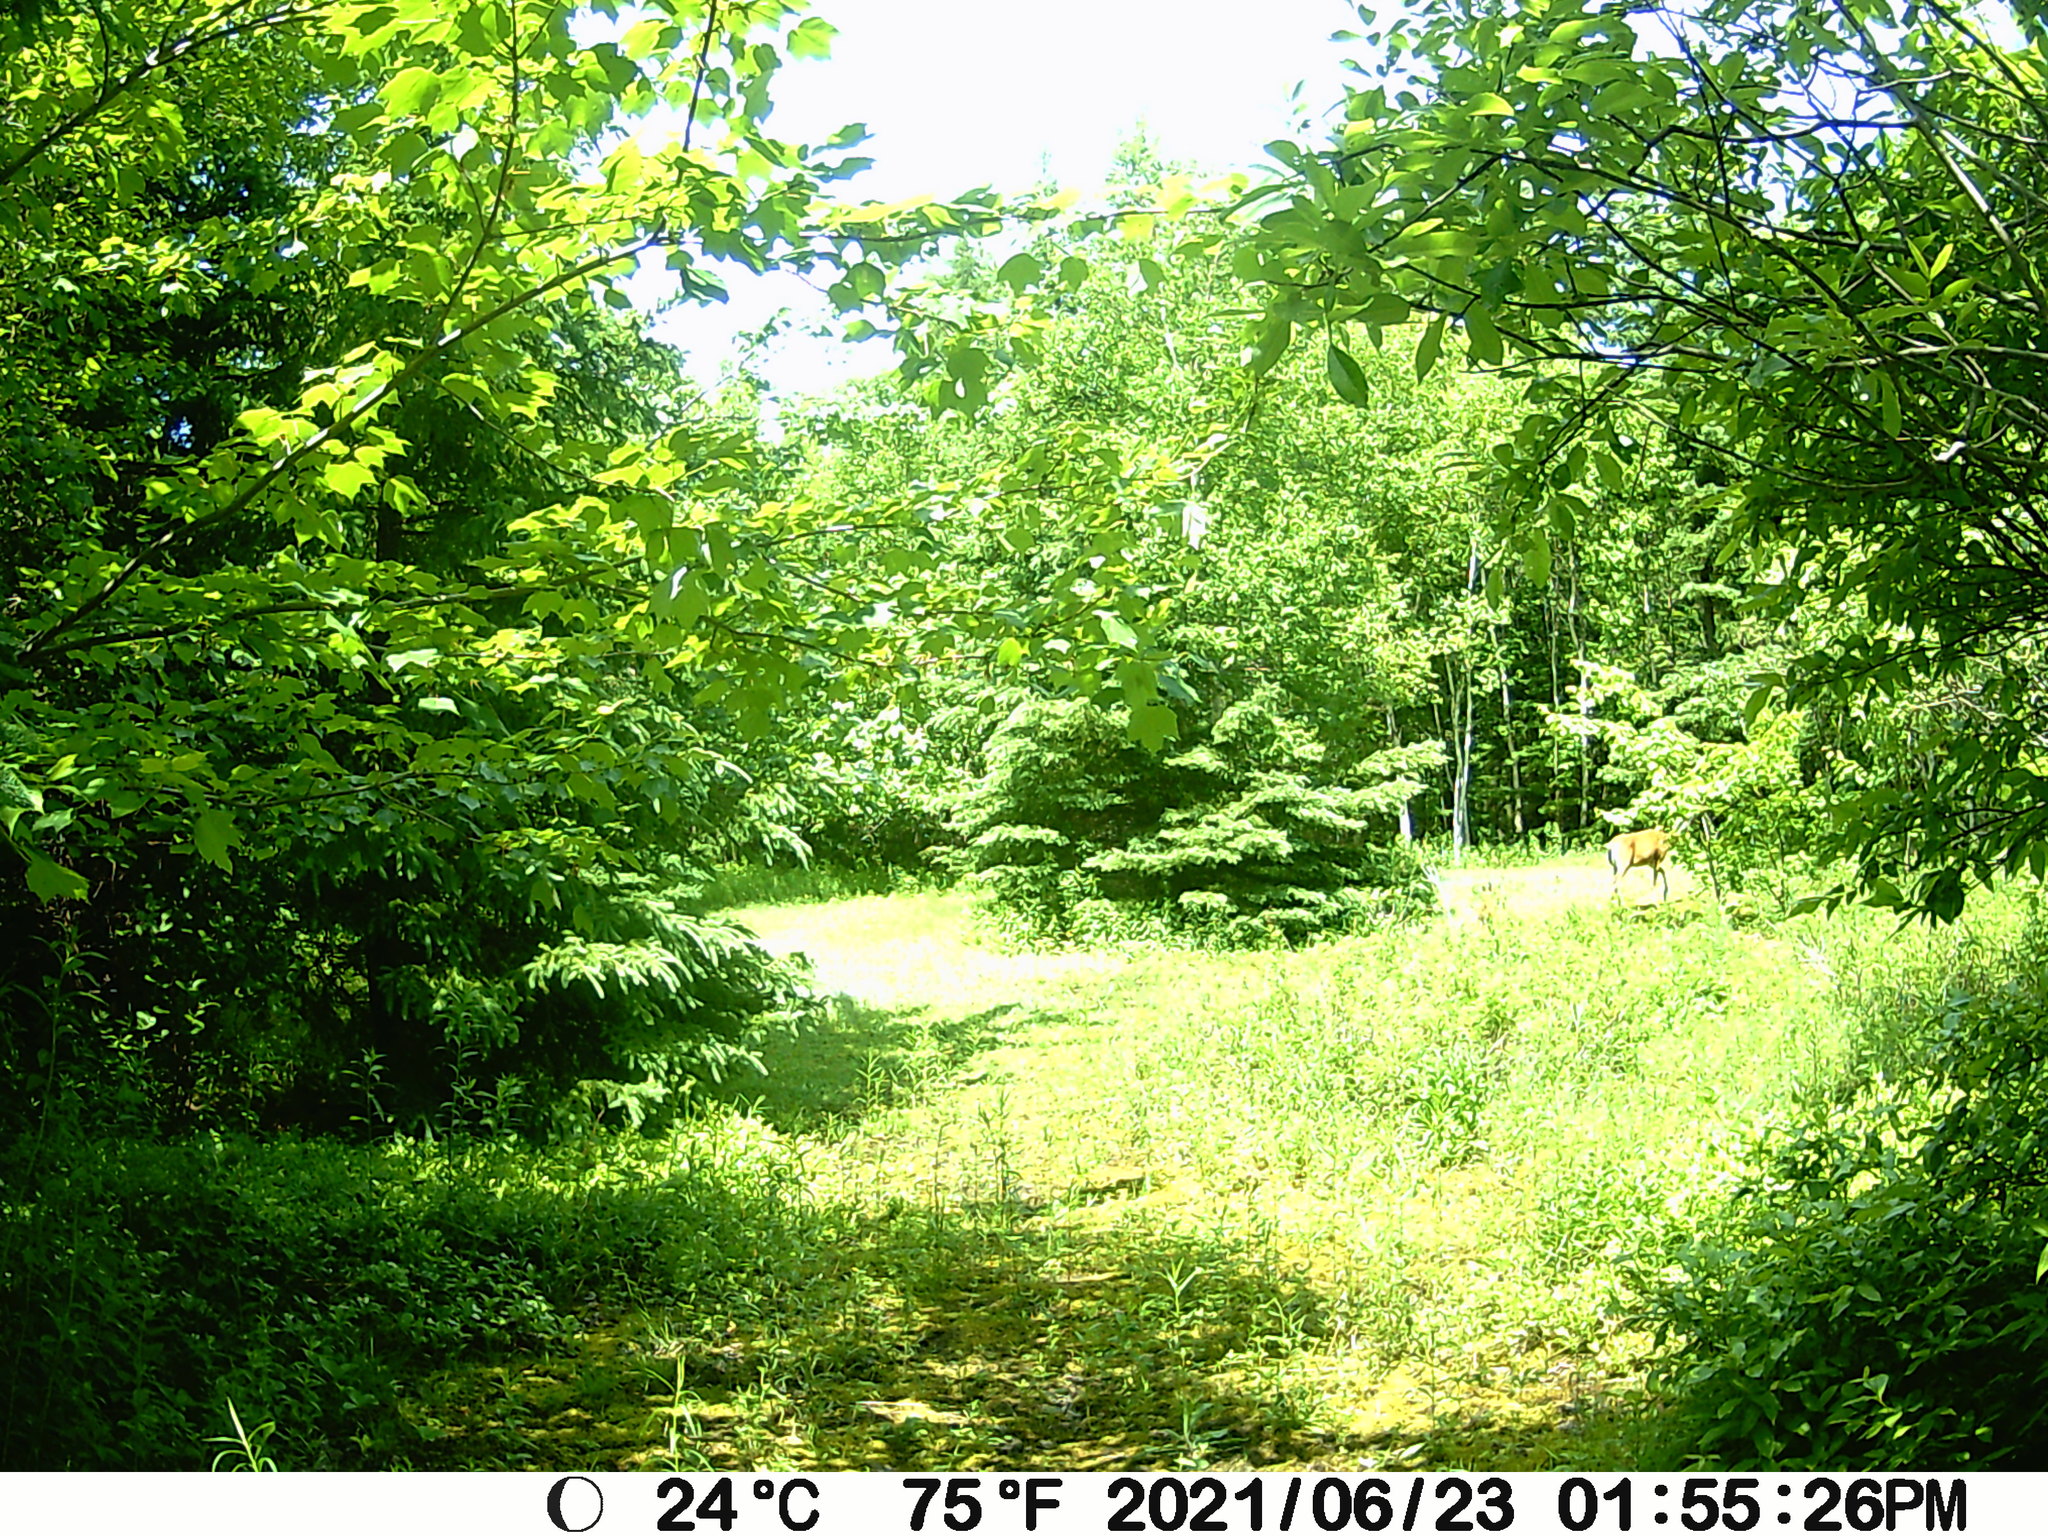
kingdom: Animalia
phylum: Chordata
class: Mammalia
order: Artiodactyla
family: Cervidae
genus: Odocoileus
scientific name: Odocoileus virginianus
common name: White-tailed deer
